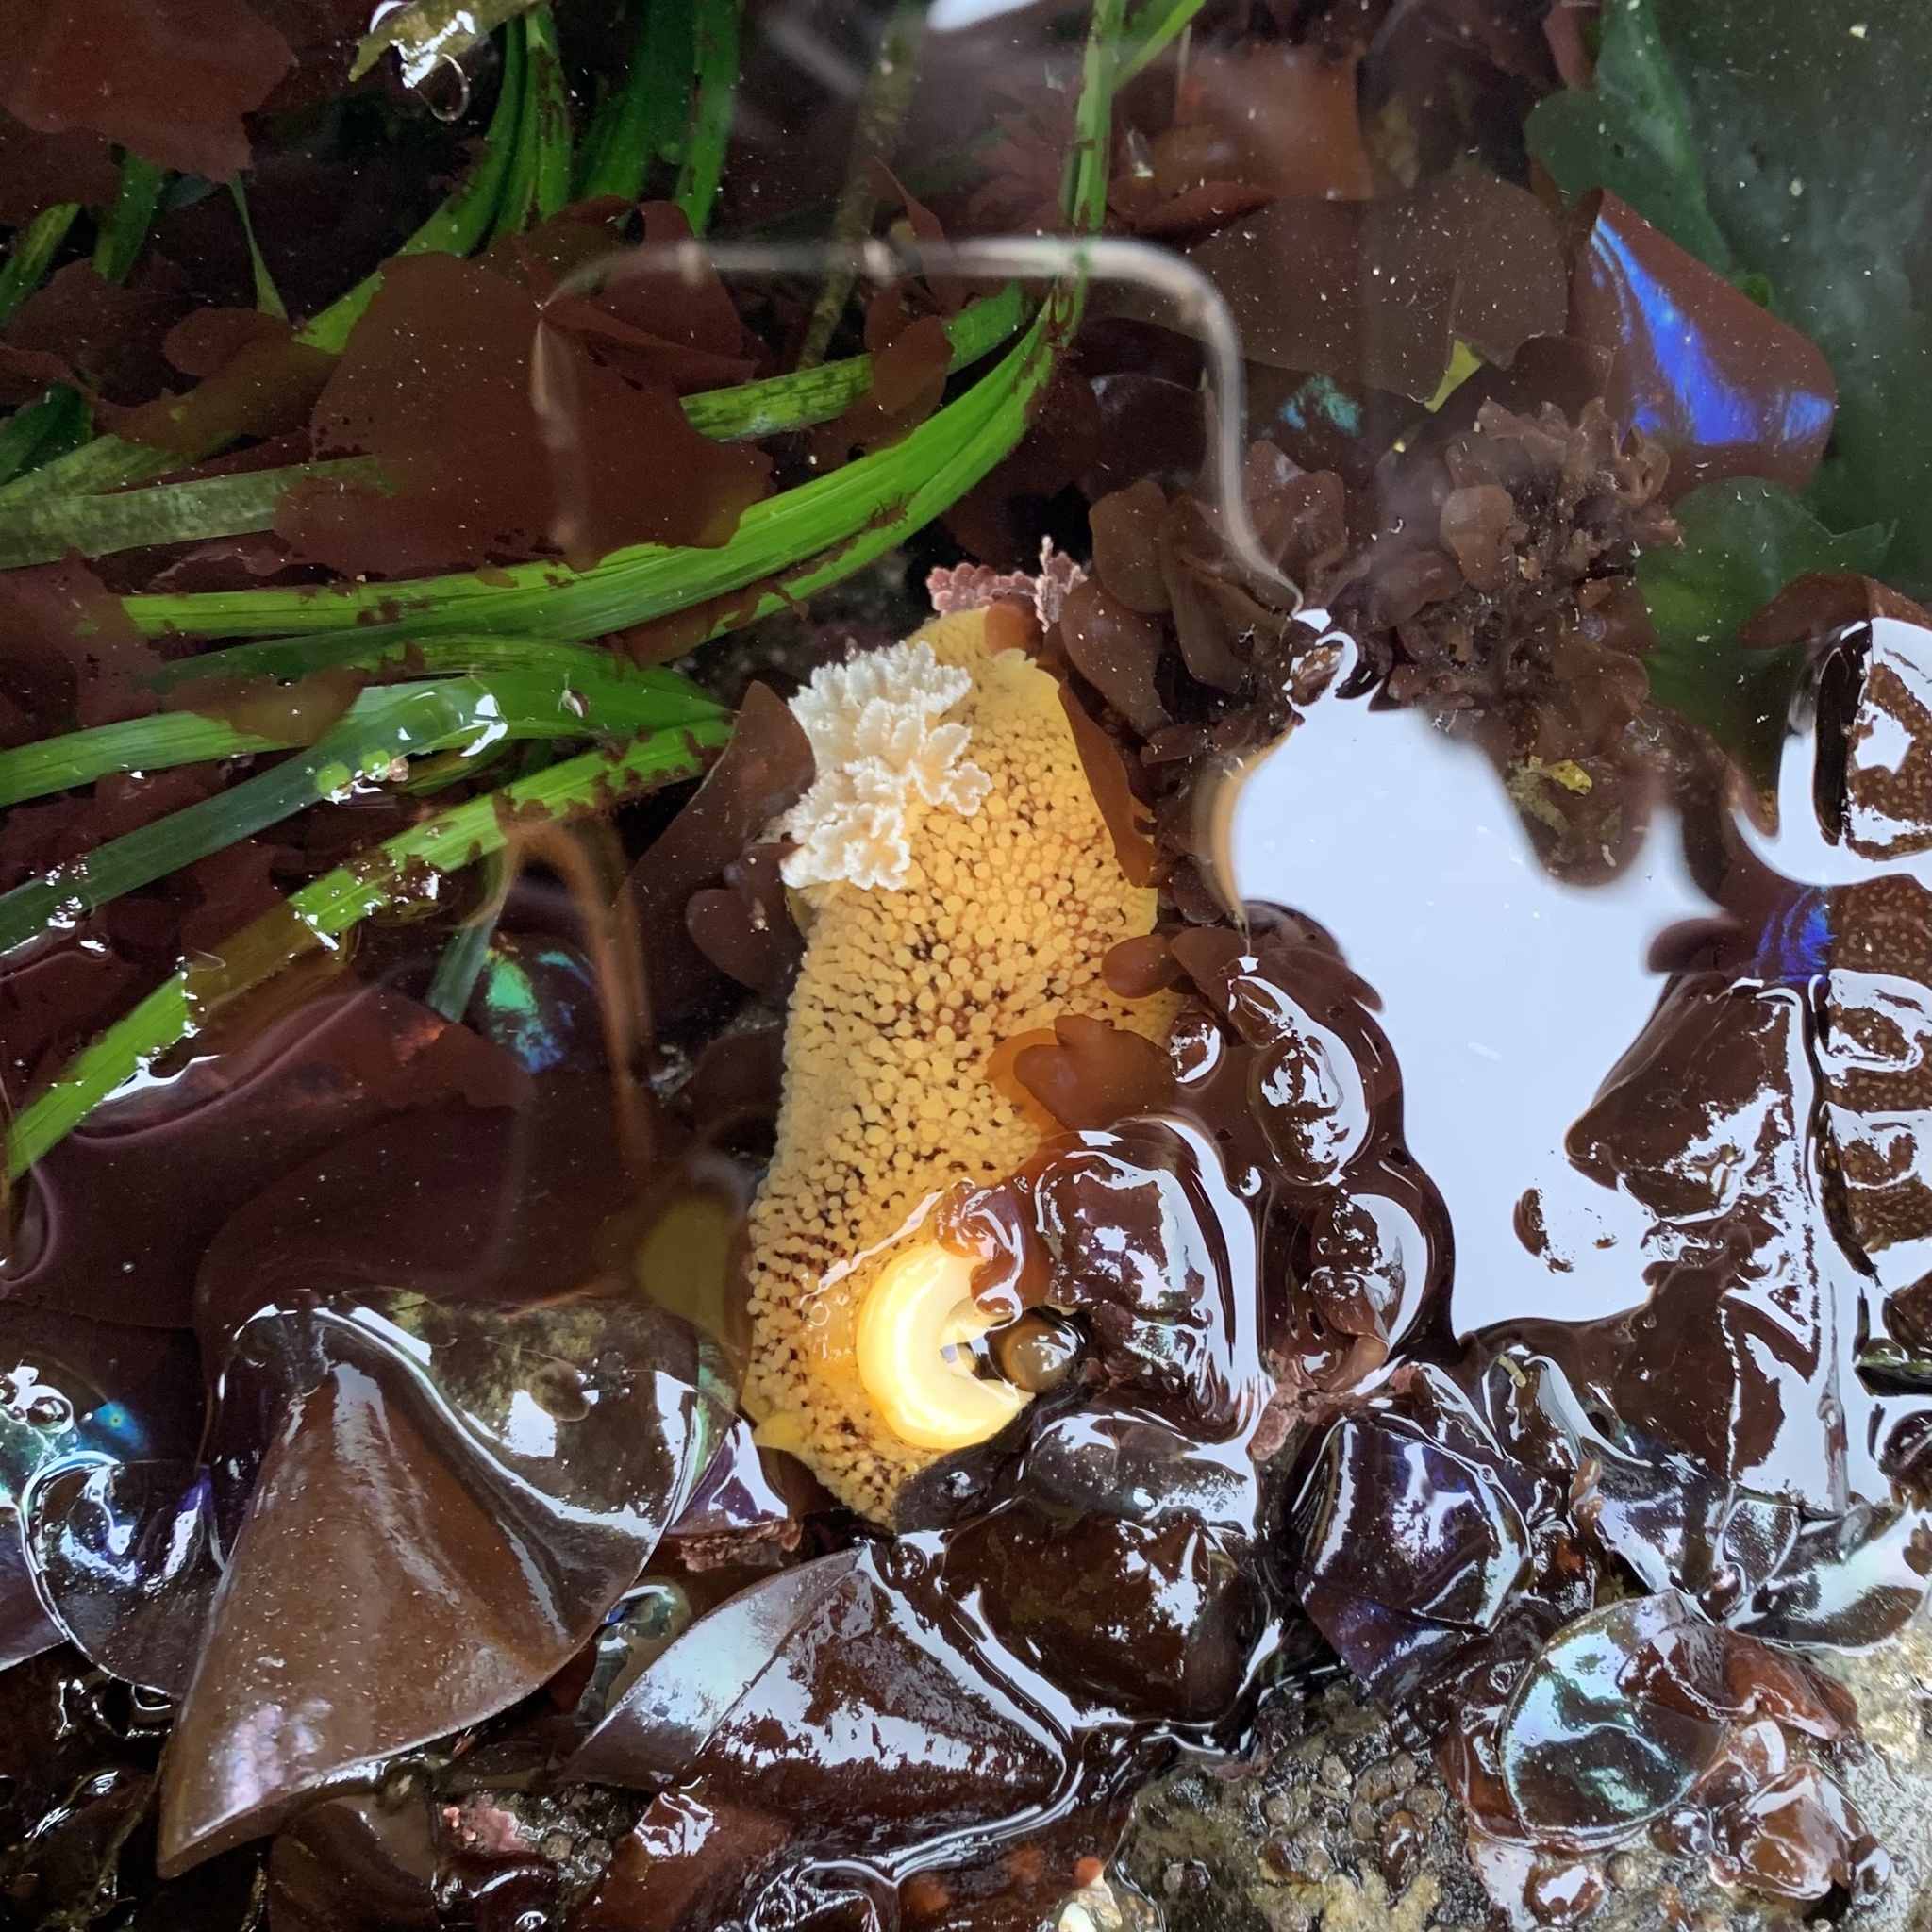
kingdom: Animalia
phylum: Mollusca
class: Gastropoda
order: Nudibranchia
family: Discodorididae
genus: Peltodoris
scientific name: Peltodoris nobilis
